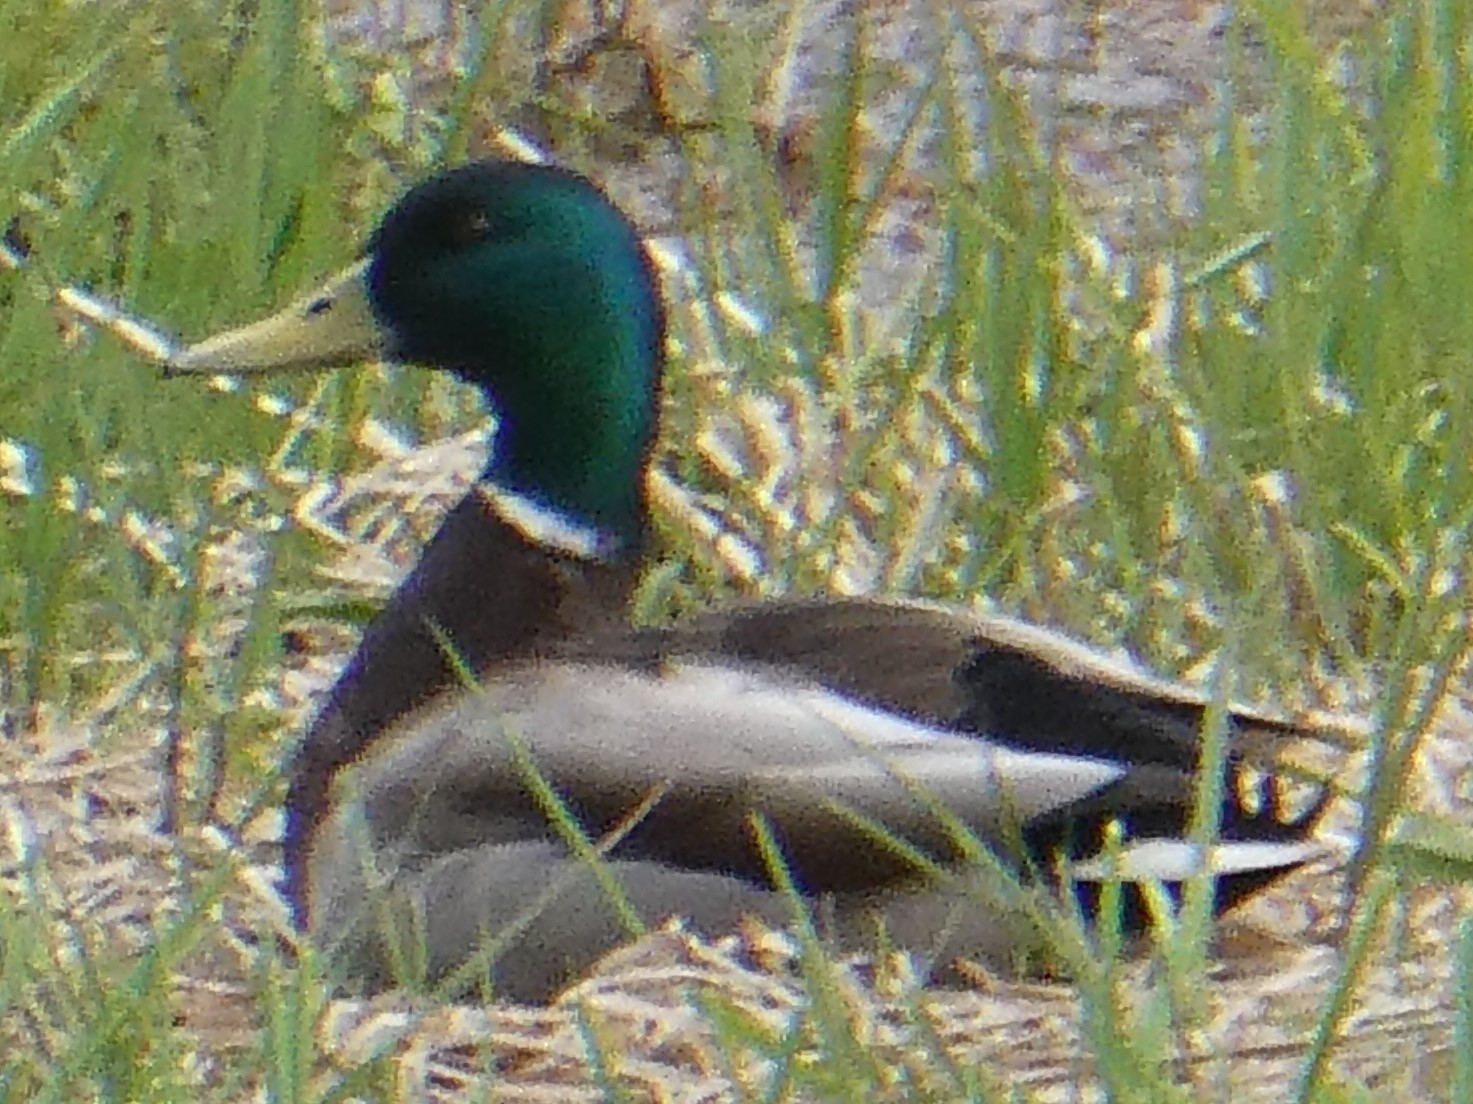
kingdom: Animalia
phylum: Chordata
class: Aves
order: Anseriformes
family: Anatidae
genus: Anas
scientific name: Anas platyrhynchos
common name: Mallard
